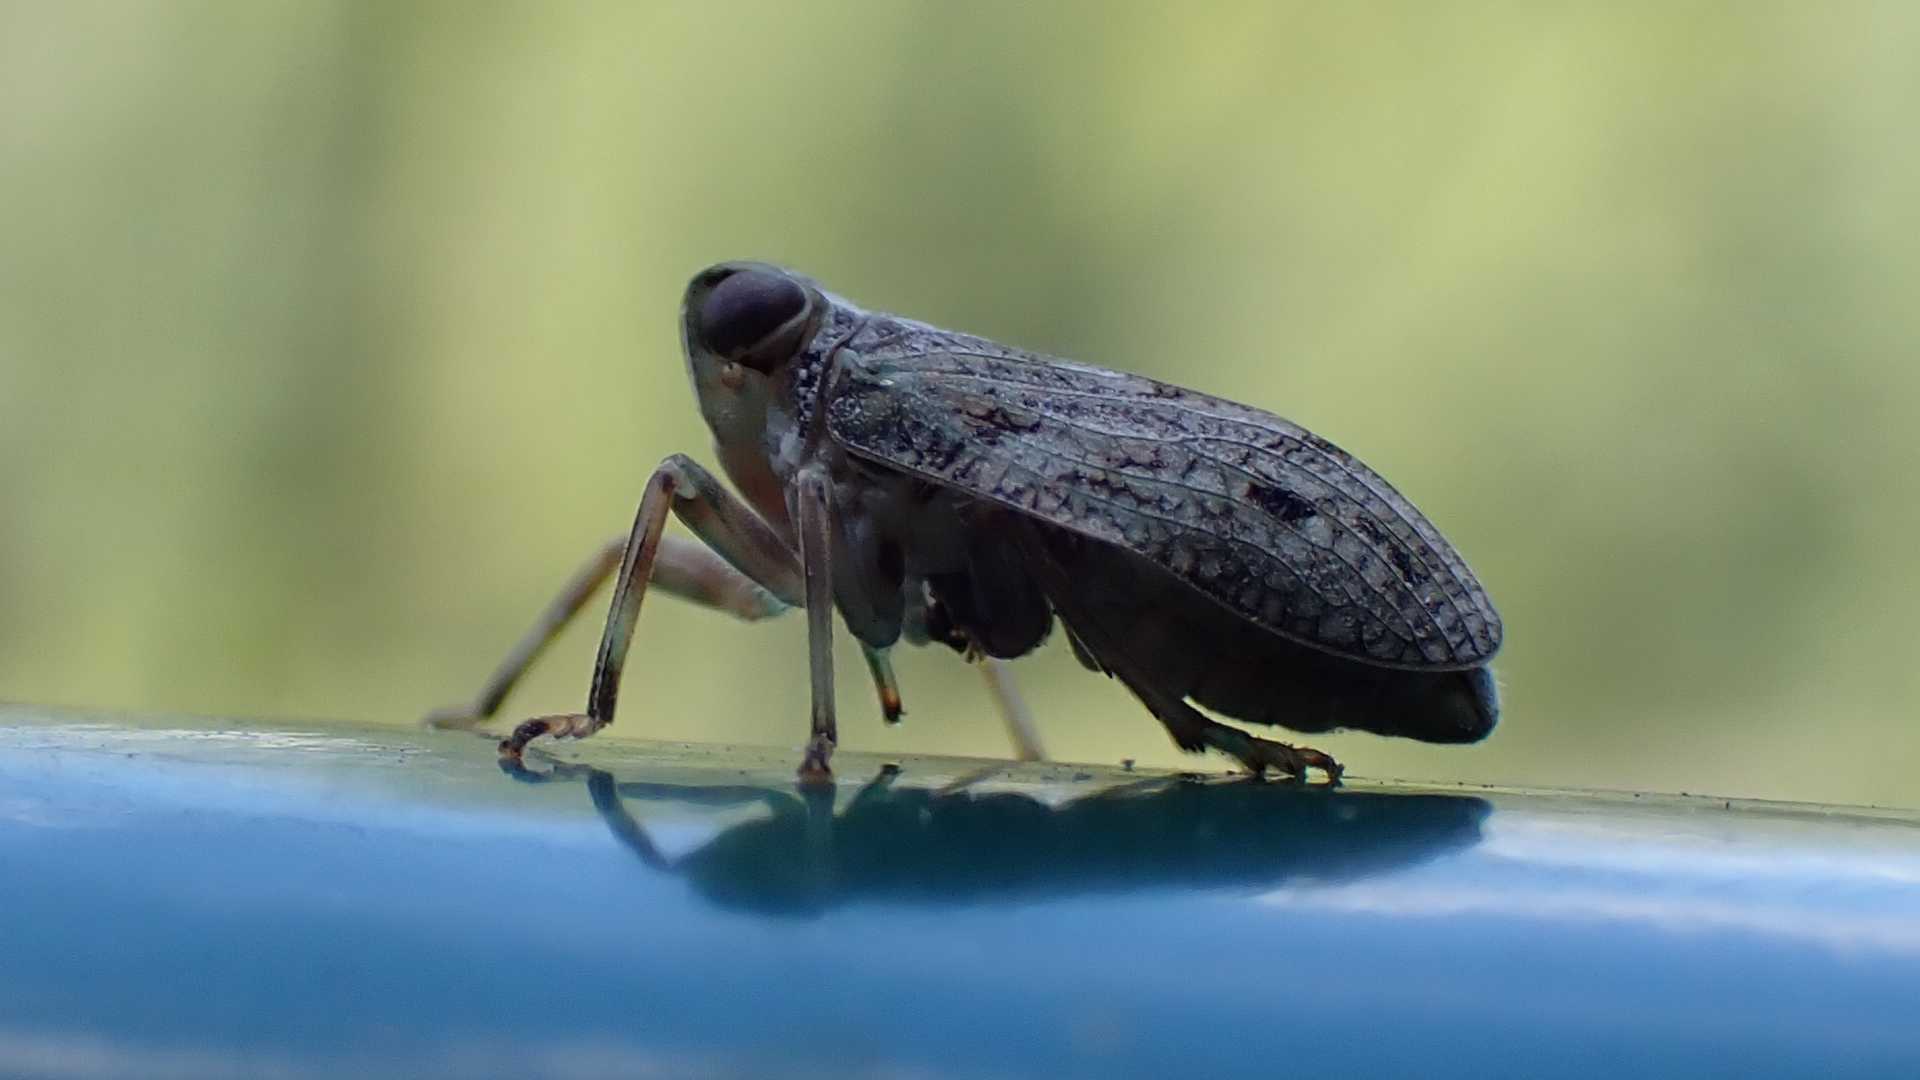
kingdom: Animalia
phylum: Arthropoda
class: Insecta
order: Hemiptera
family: Issidae
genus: Issus
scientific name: Issus coleoptratus
